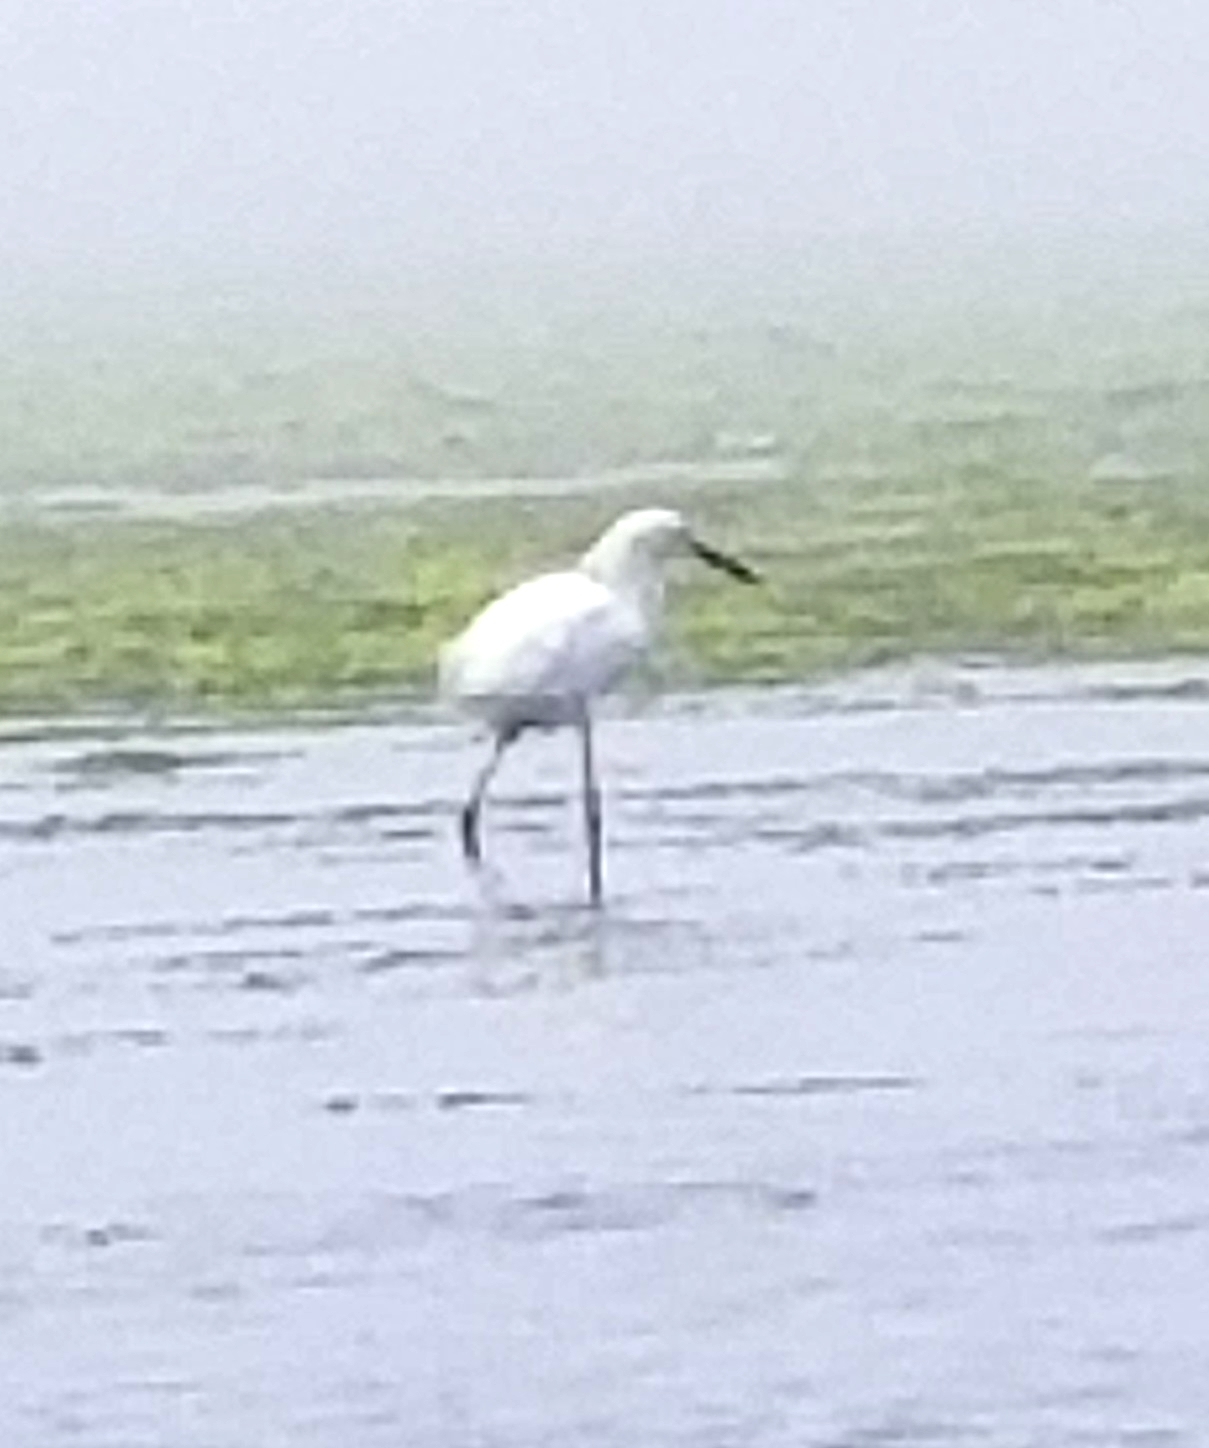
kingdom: Animalia
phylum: Chordata
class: Aves
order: Pelecaniformes
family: Ardeidae
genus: Egretta
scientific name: Egretta thula
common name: Snowy egret
